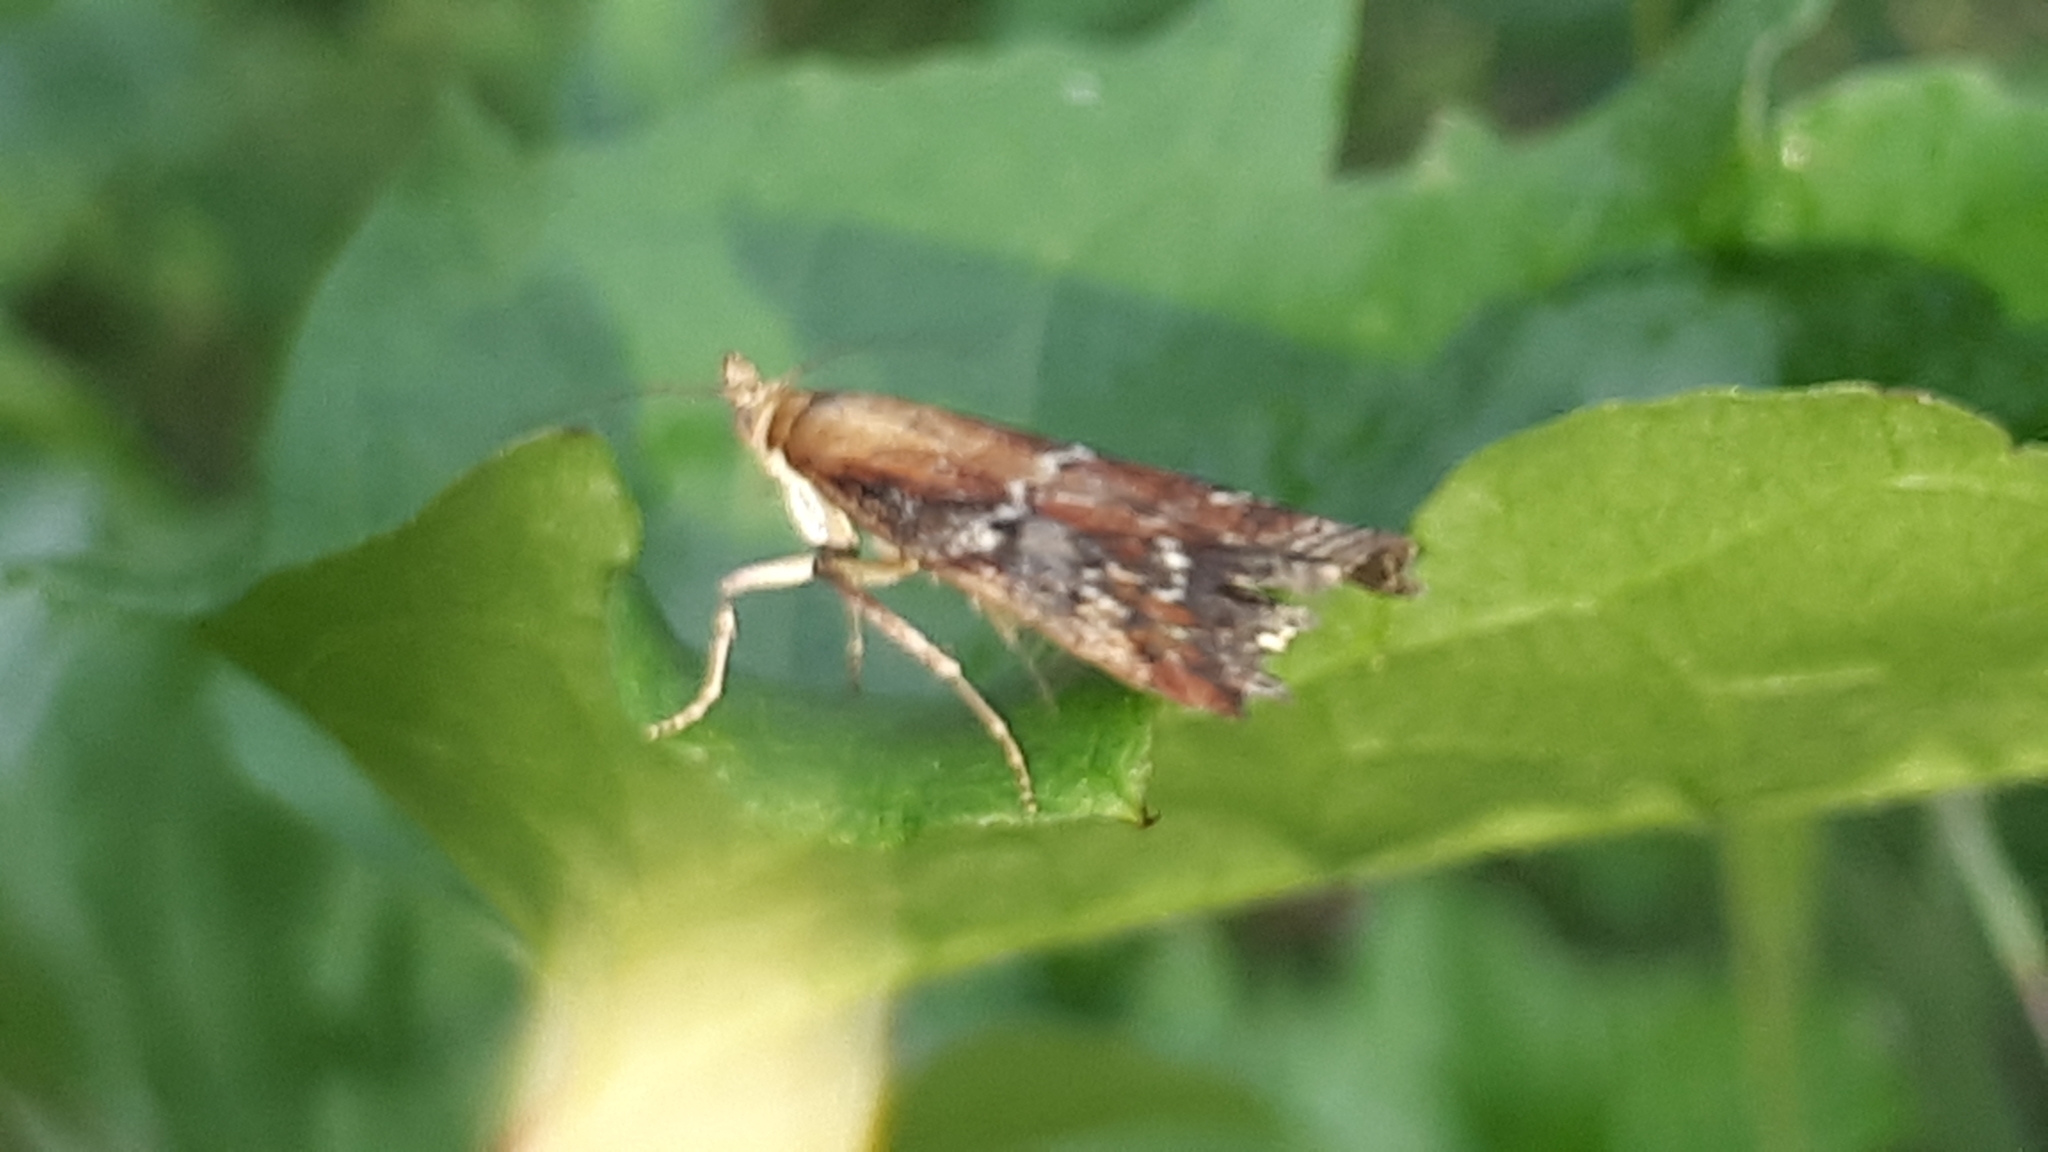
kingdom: Animalia
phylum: Arthropoda
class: Insecta
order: Lepidoptera
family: Pyralidae
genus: Uncinus
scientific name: Uncinus obductella
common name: Kent knot-horn
